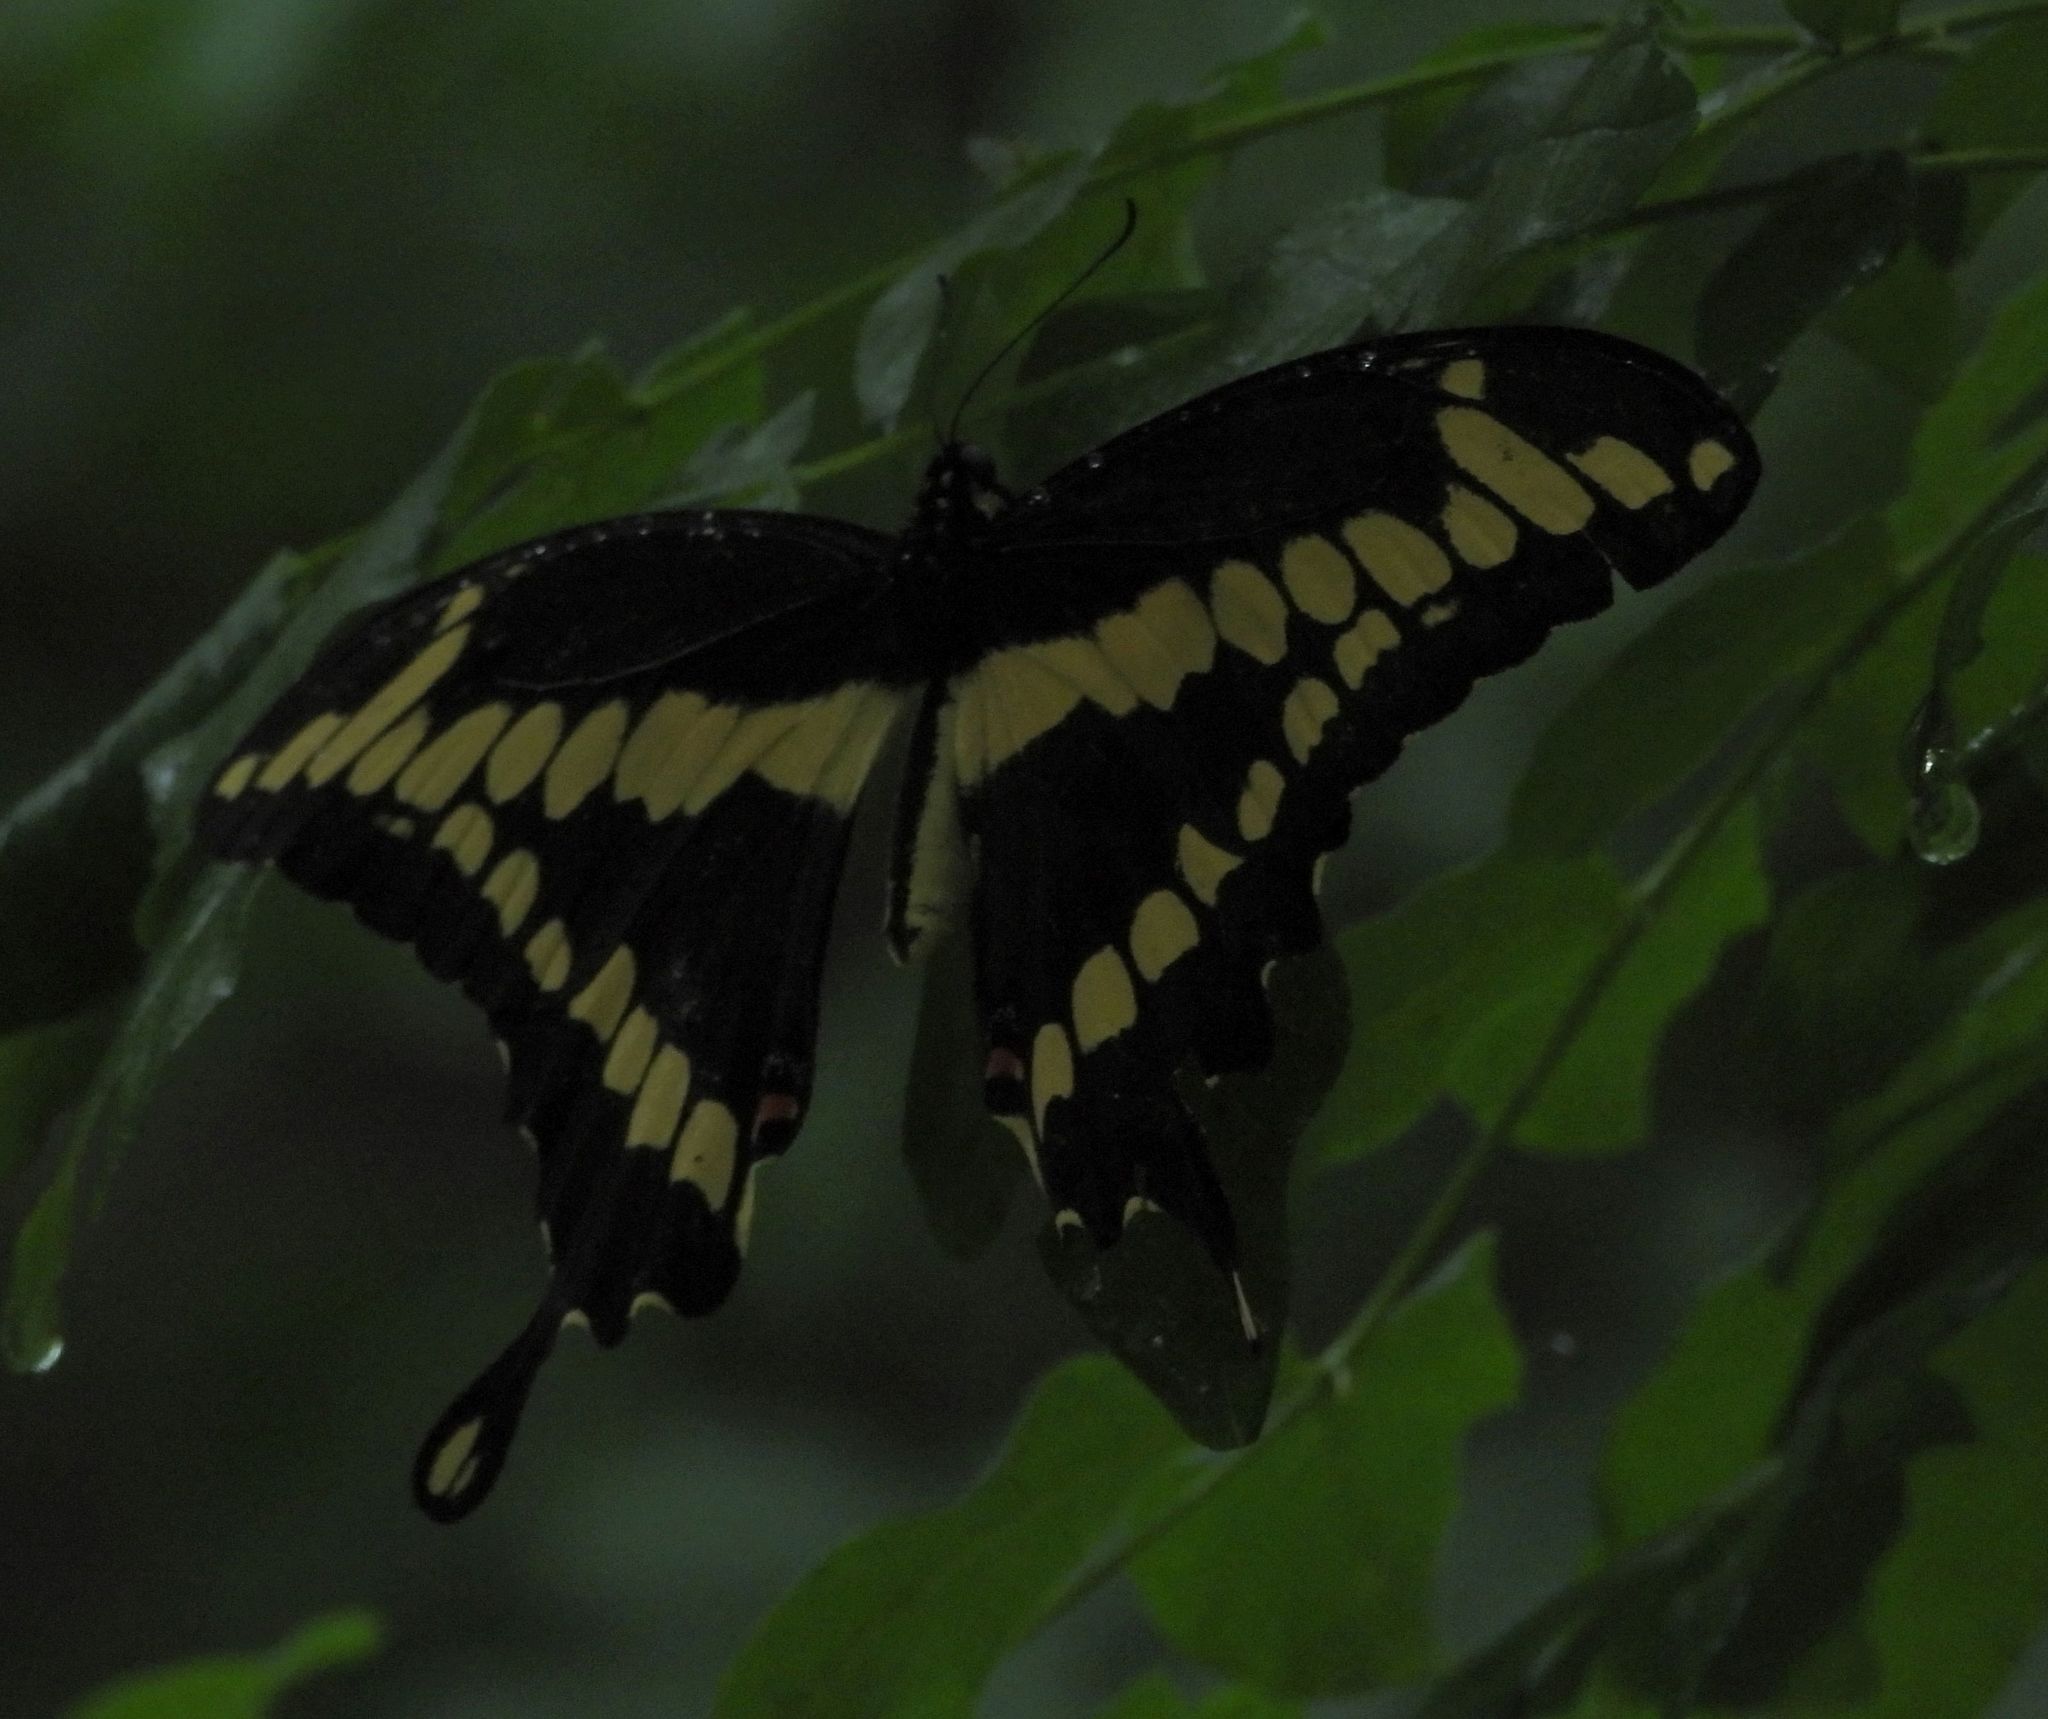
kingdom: Animalia
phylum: Arthropoda
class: Insecta
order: Lepidoptera
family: Papilionidae
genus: Papilio
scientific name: Papilio cresphontes
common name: Giant swallowtail
